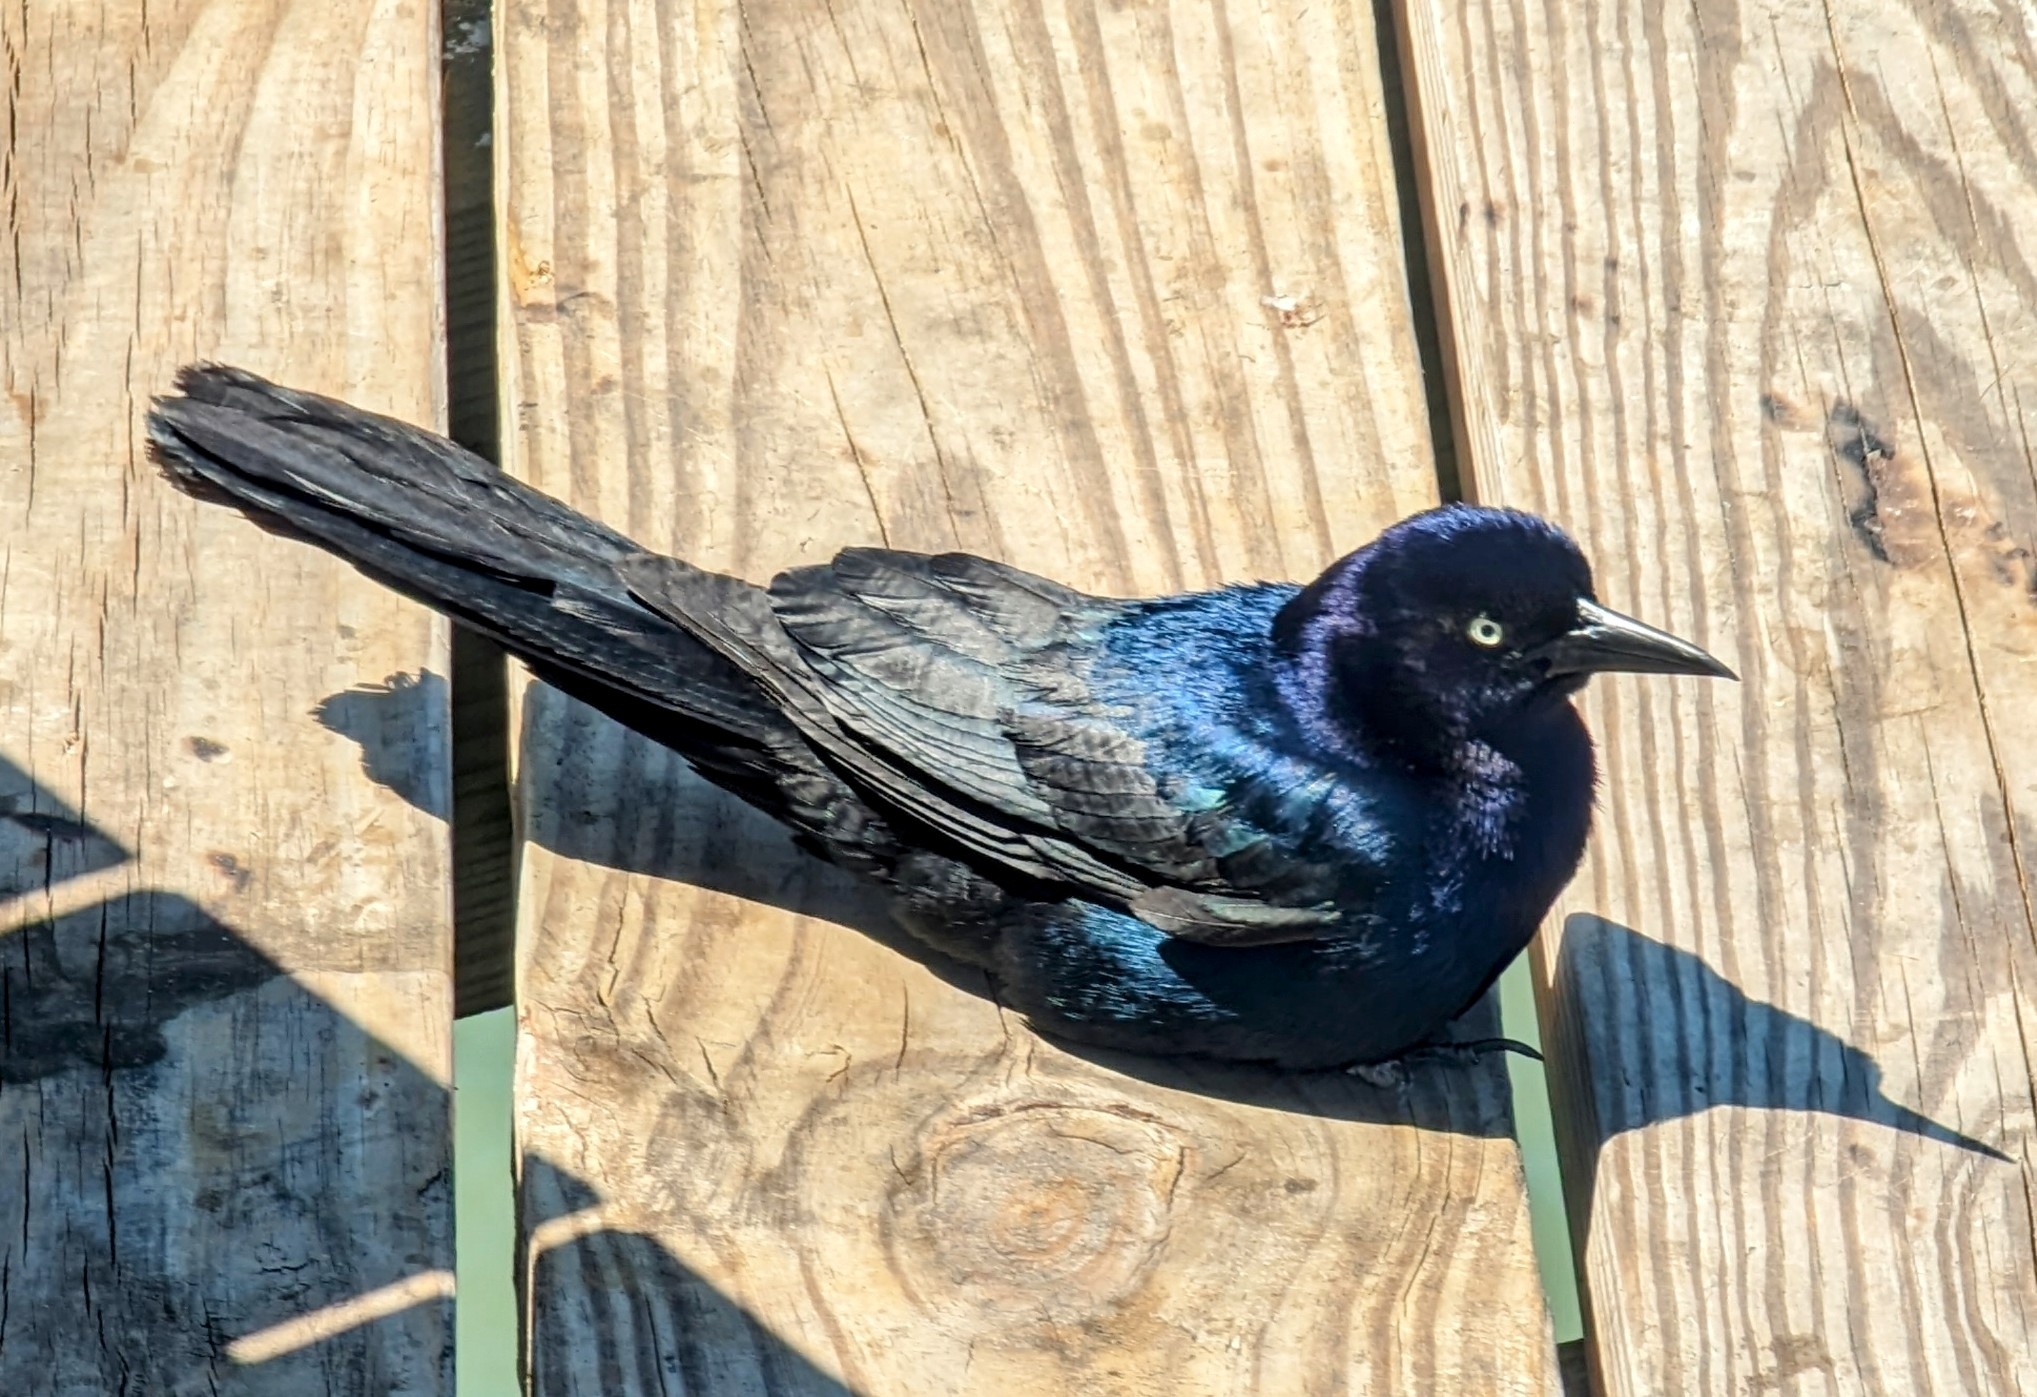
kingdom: Animalia
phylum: Chordata
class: Aves
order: Passeriformes
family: Icteridae
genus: Quiscalus
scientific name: Quiscalus major
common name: Boat-tailed grackle
